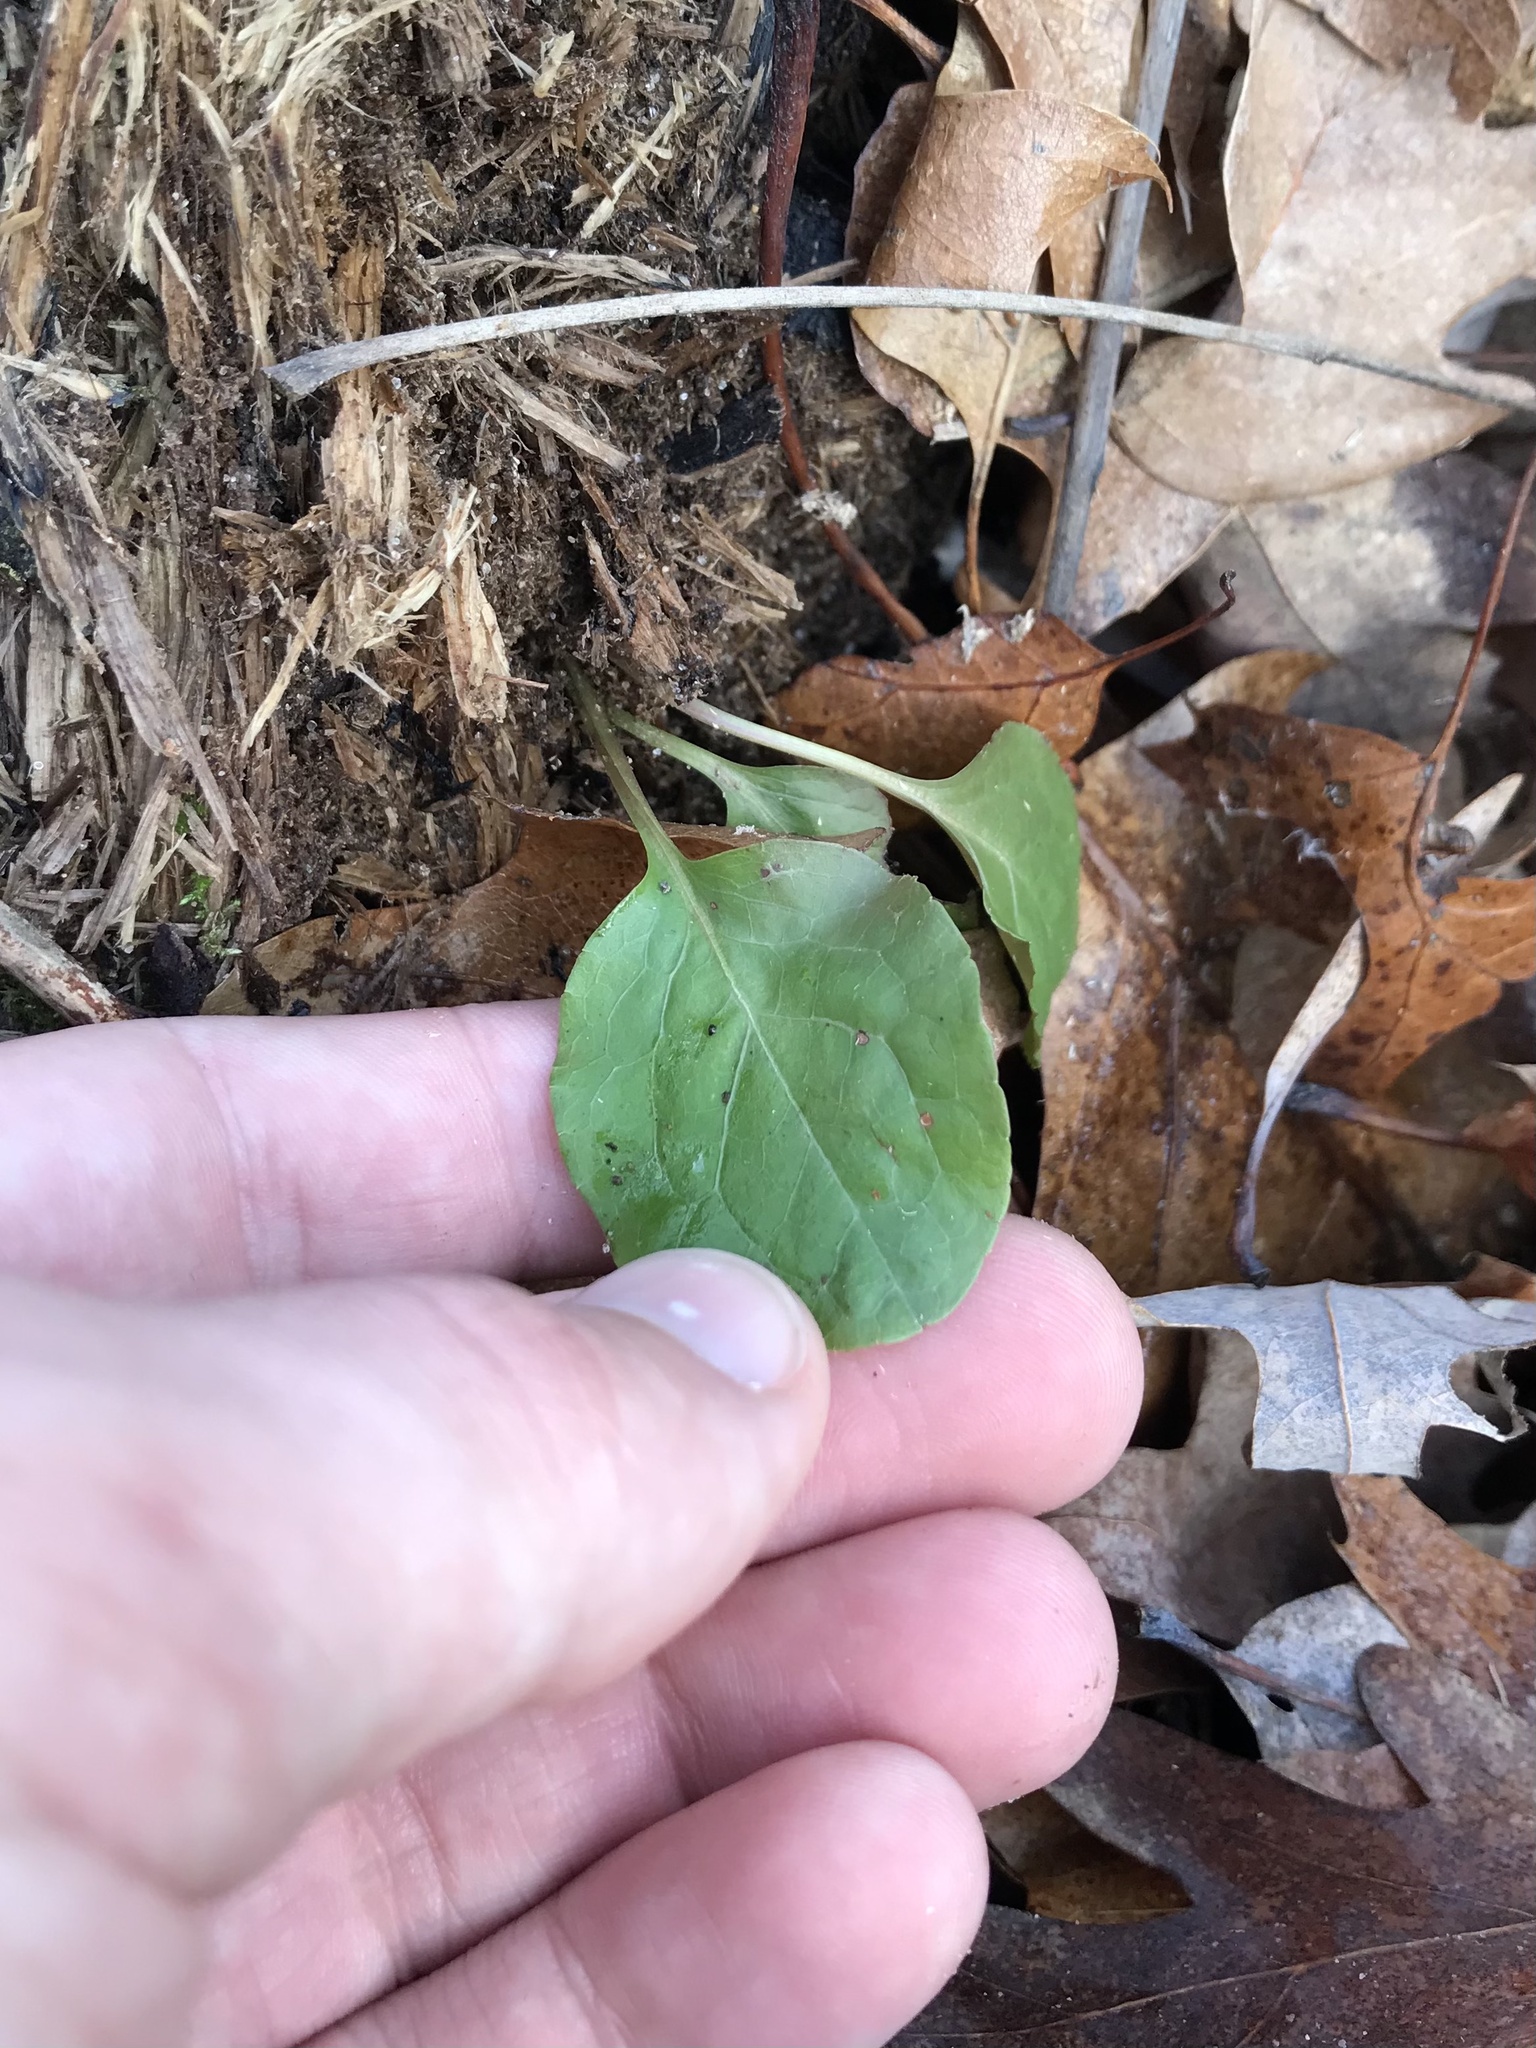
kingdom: Plantae
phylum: Tracheophyta
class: Magnoliopsida
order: Ericales
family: Ericaceae
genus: Pyrola
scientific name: Pyrola elliptica
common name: Shinleaf
